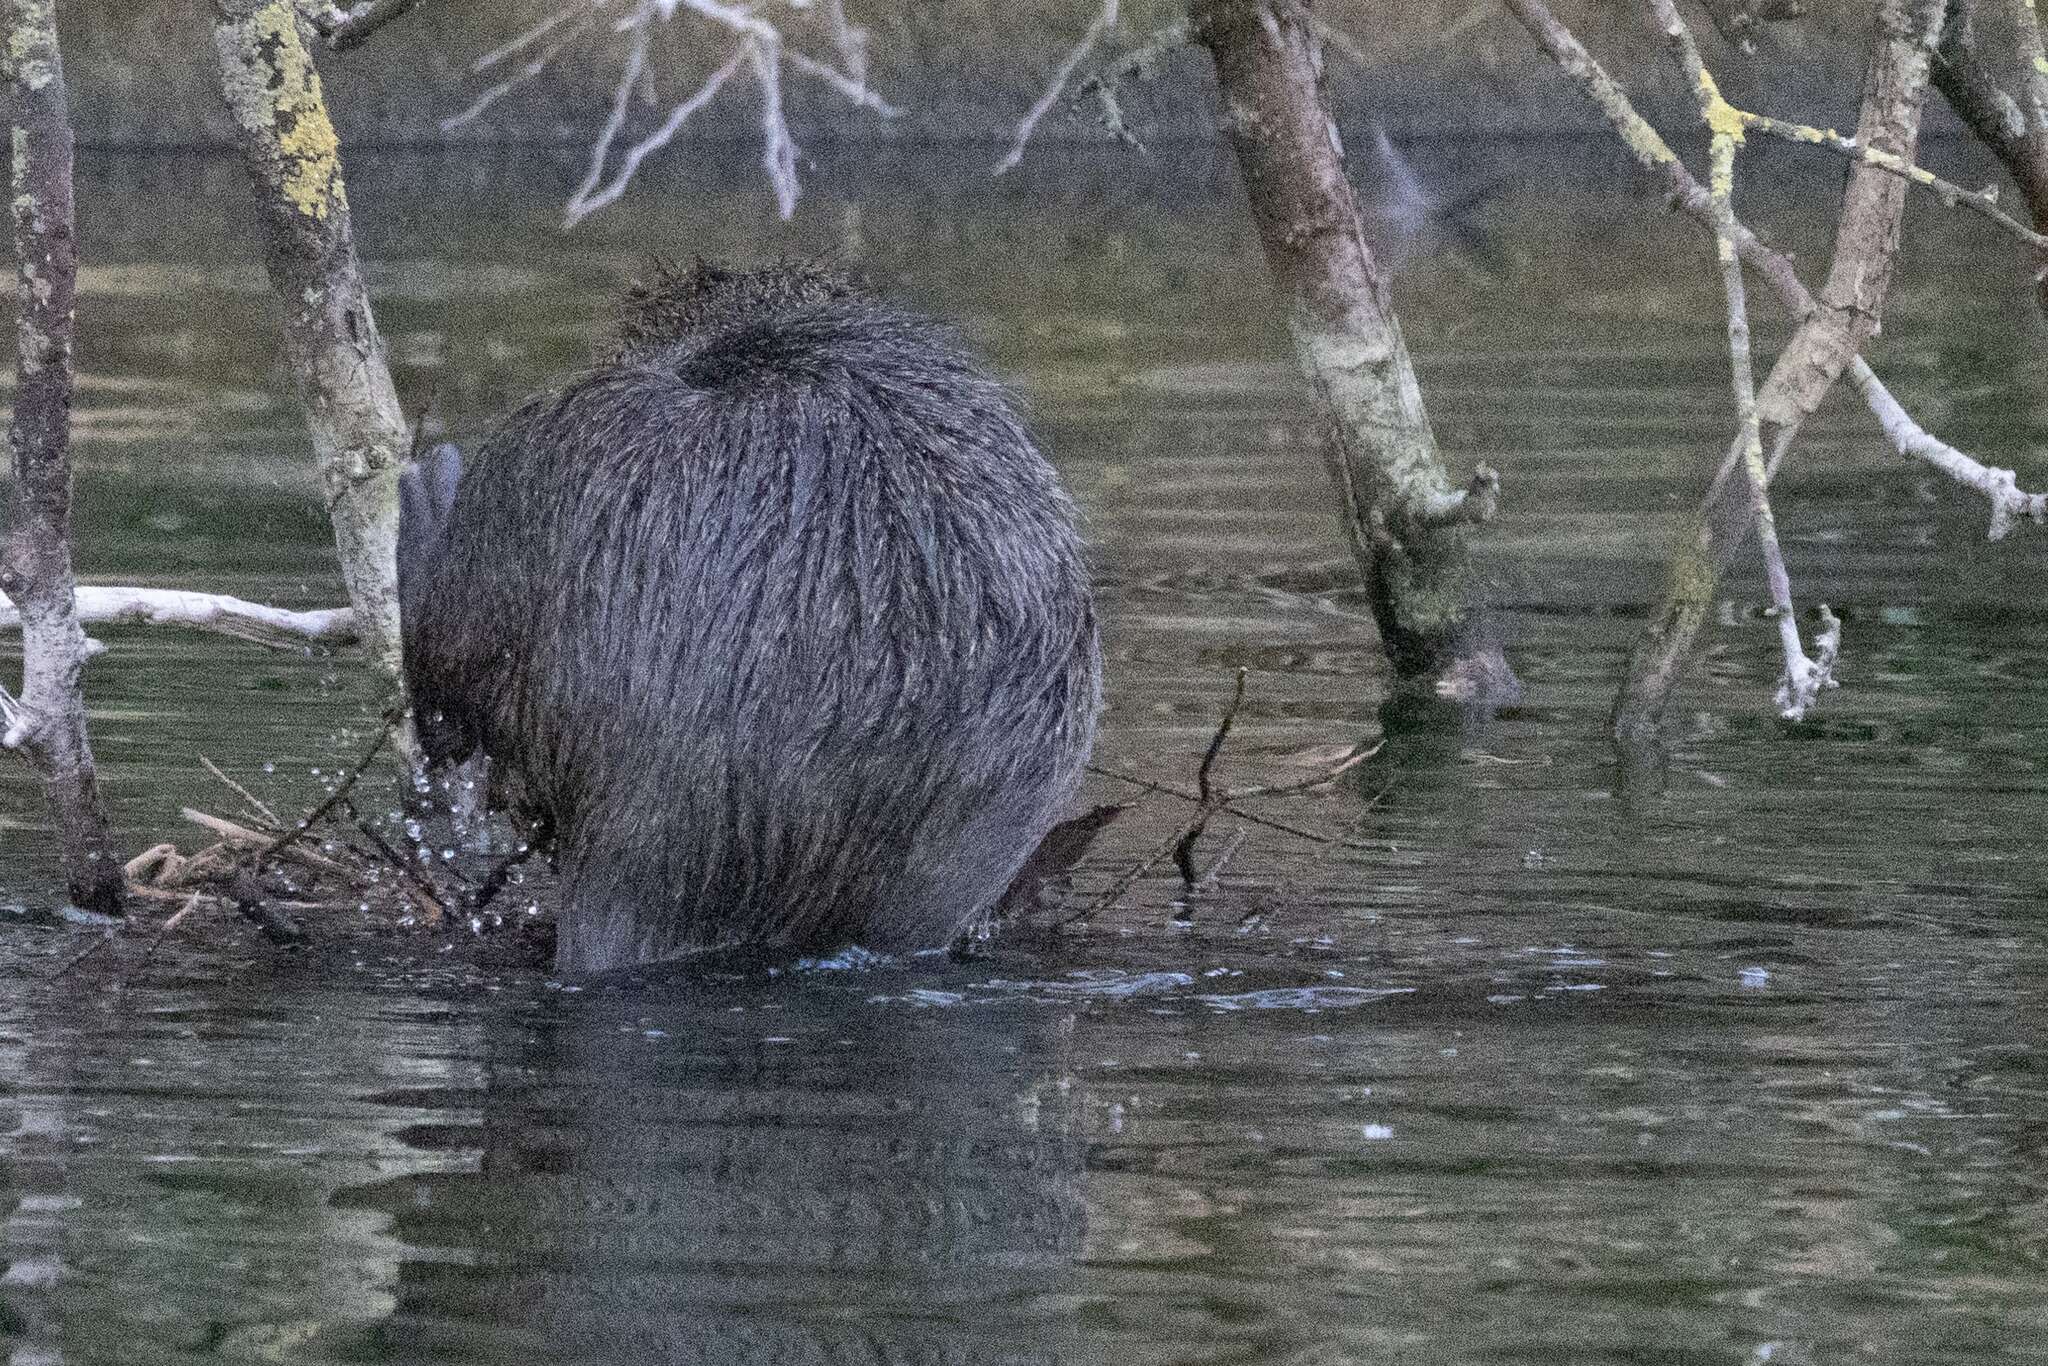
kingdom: Animalia
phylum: Chordata
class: Mammalia
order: Rodentia
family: Myocastoridae
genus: Myocastor
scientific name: Myocastor coypus
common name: Coypu
